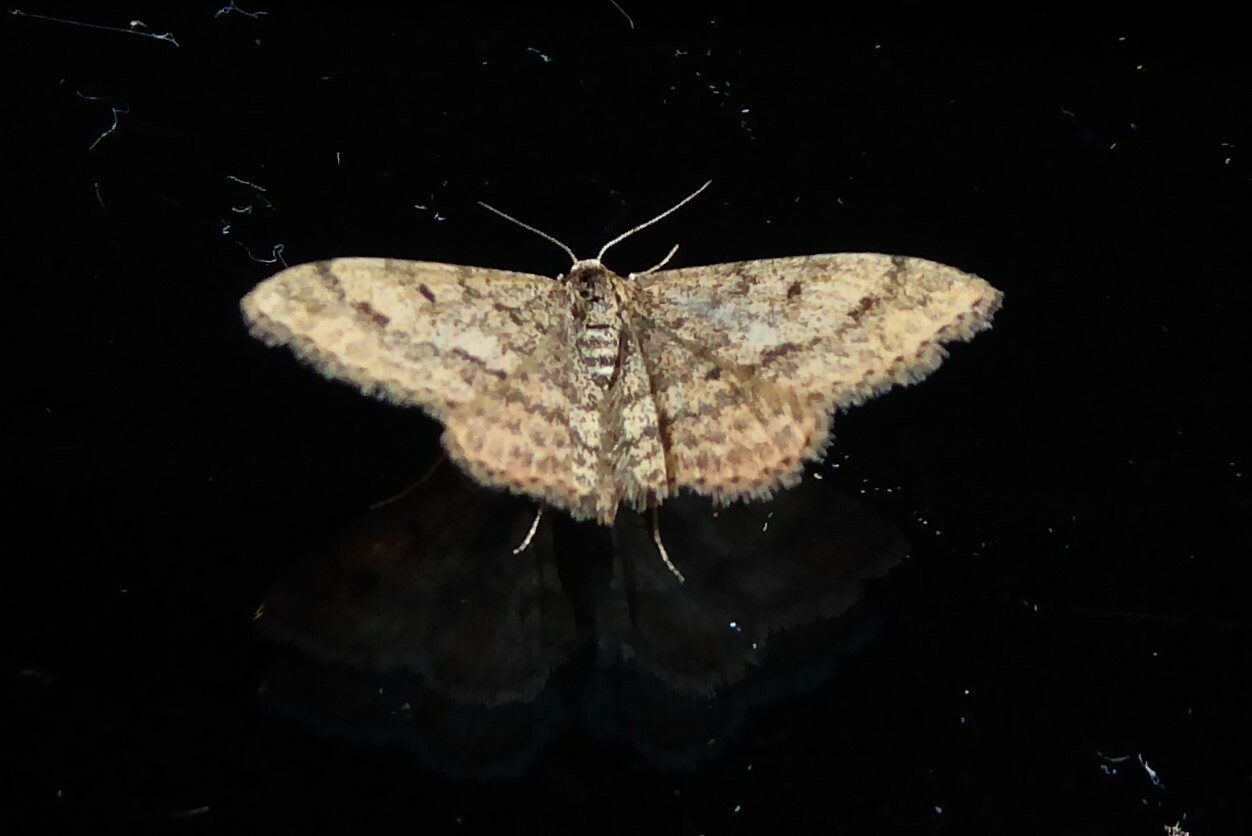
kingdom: Animalia
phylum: Arthropoda
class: Insecta
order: Lepidoptera
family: Geometridae
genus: Scopula
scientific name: Scopula rubraria
